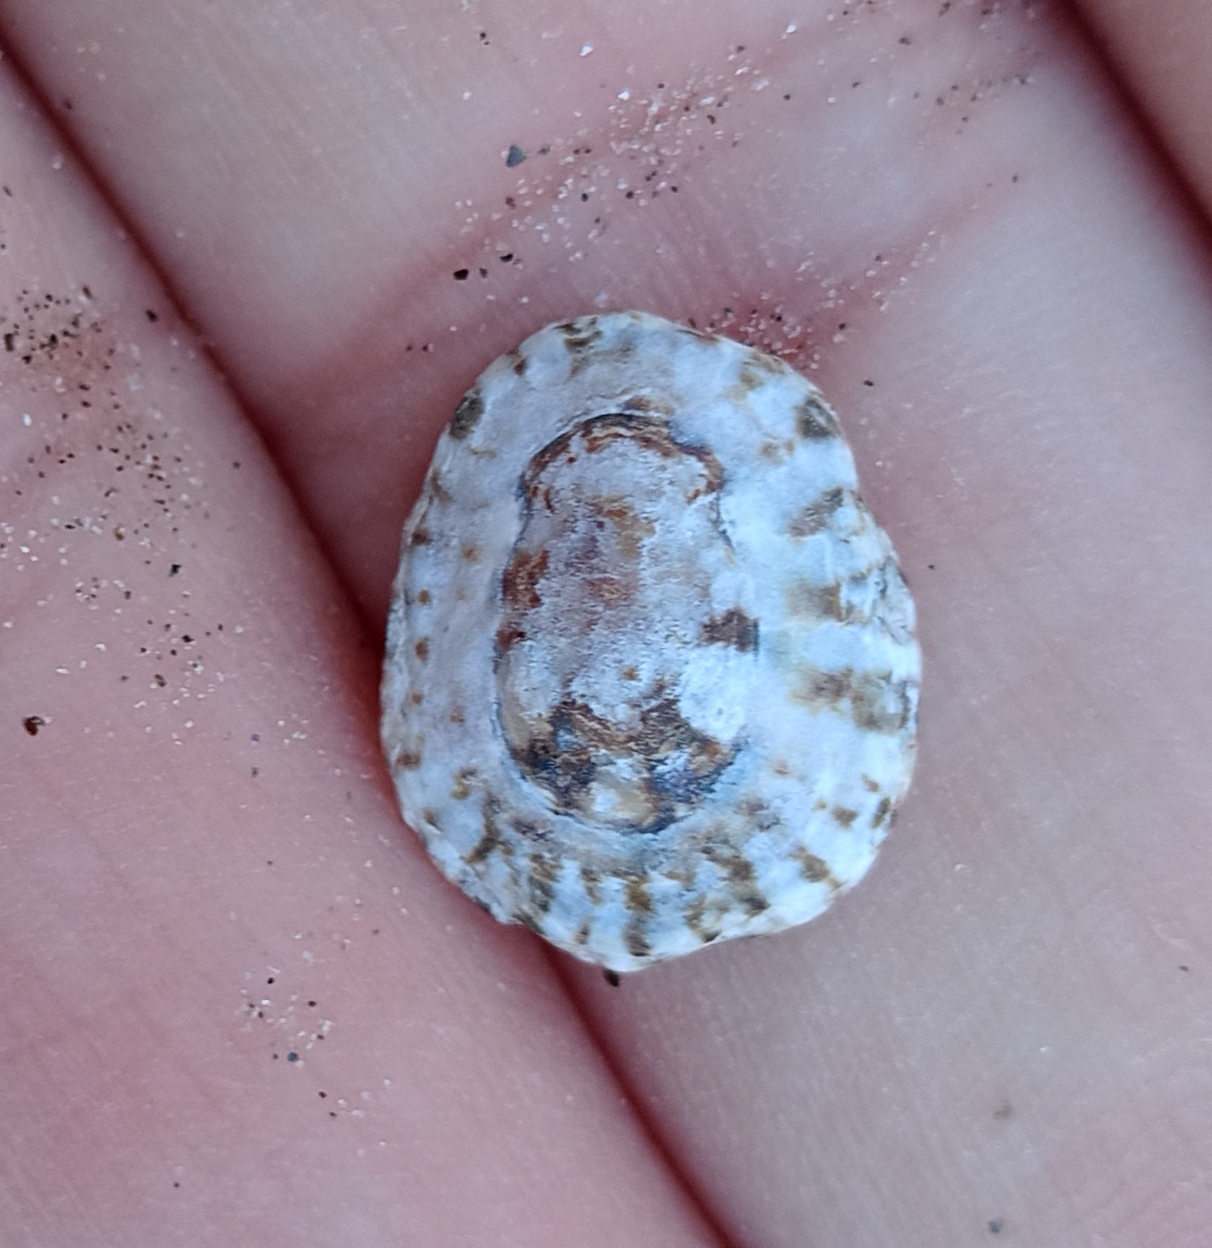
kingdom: Animalia
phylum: Mollusca
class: Gastropoda
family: Lottiidae
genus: Lottia
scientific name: Lottia subrugosa
